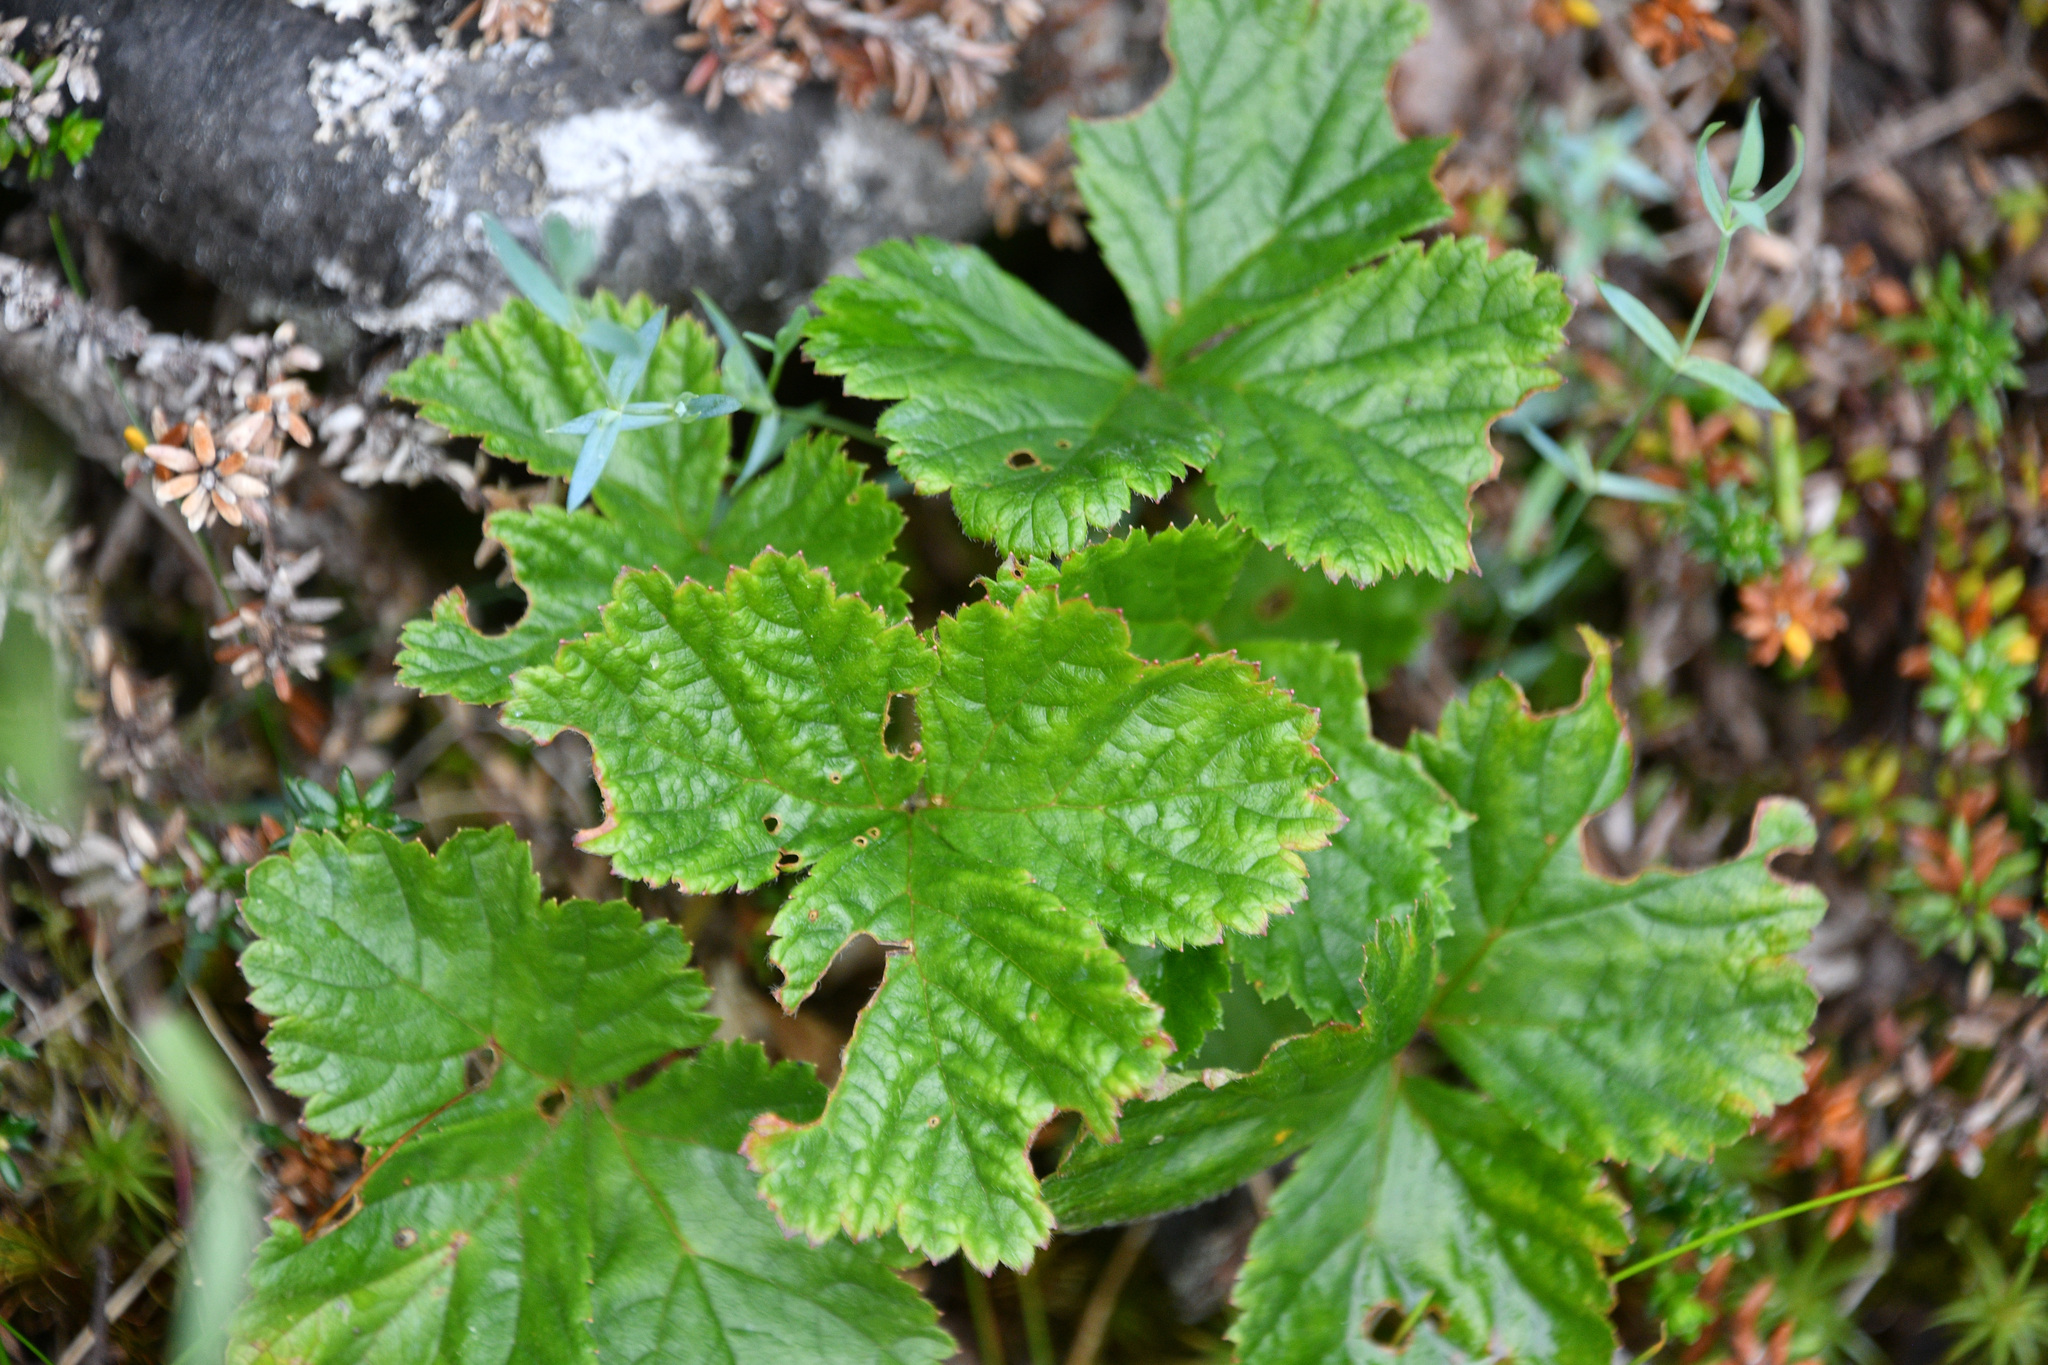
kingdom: Plantae
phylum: Tracheophyta
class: Magnoliopsida
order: Rosales
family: Rosaceae
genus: Rubus
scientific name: Rubus chamaemorus
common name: Cloudberry
